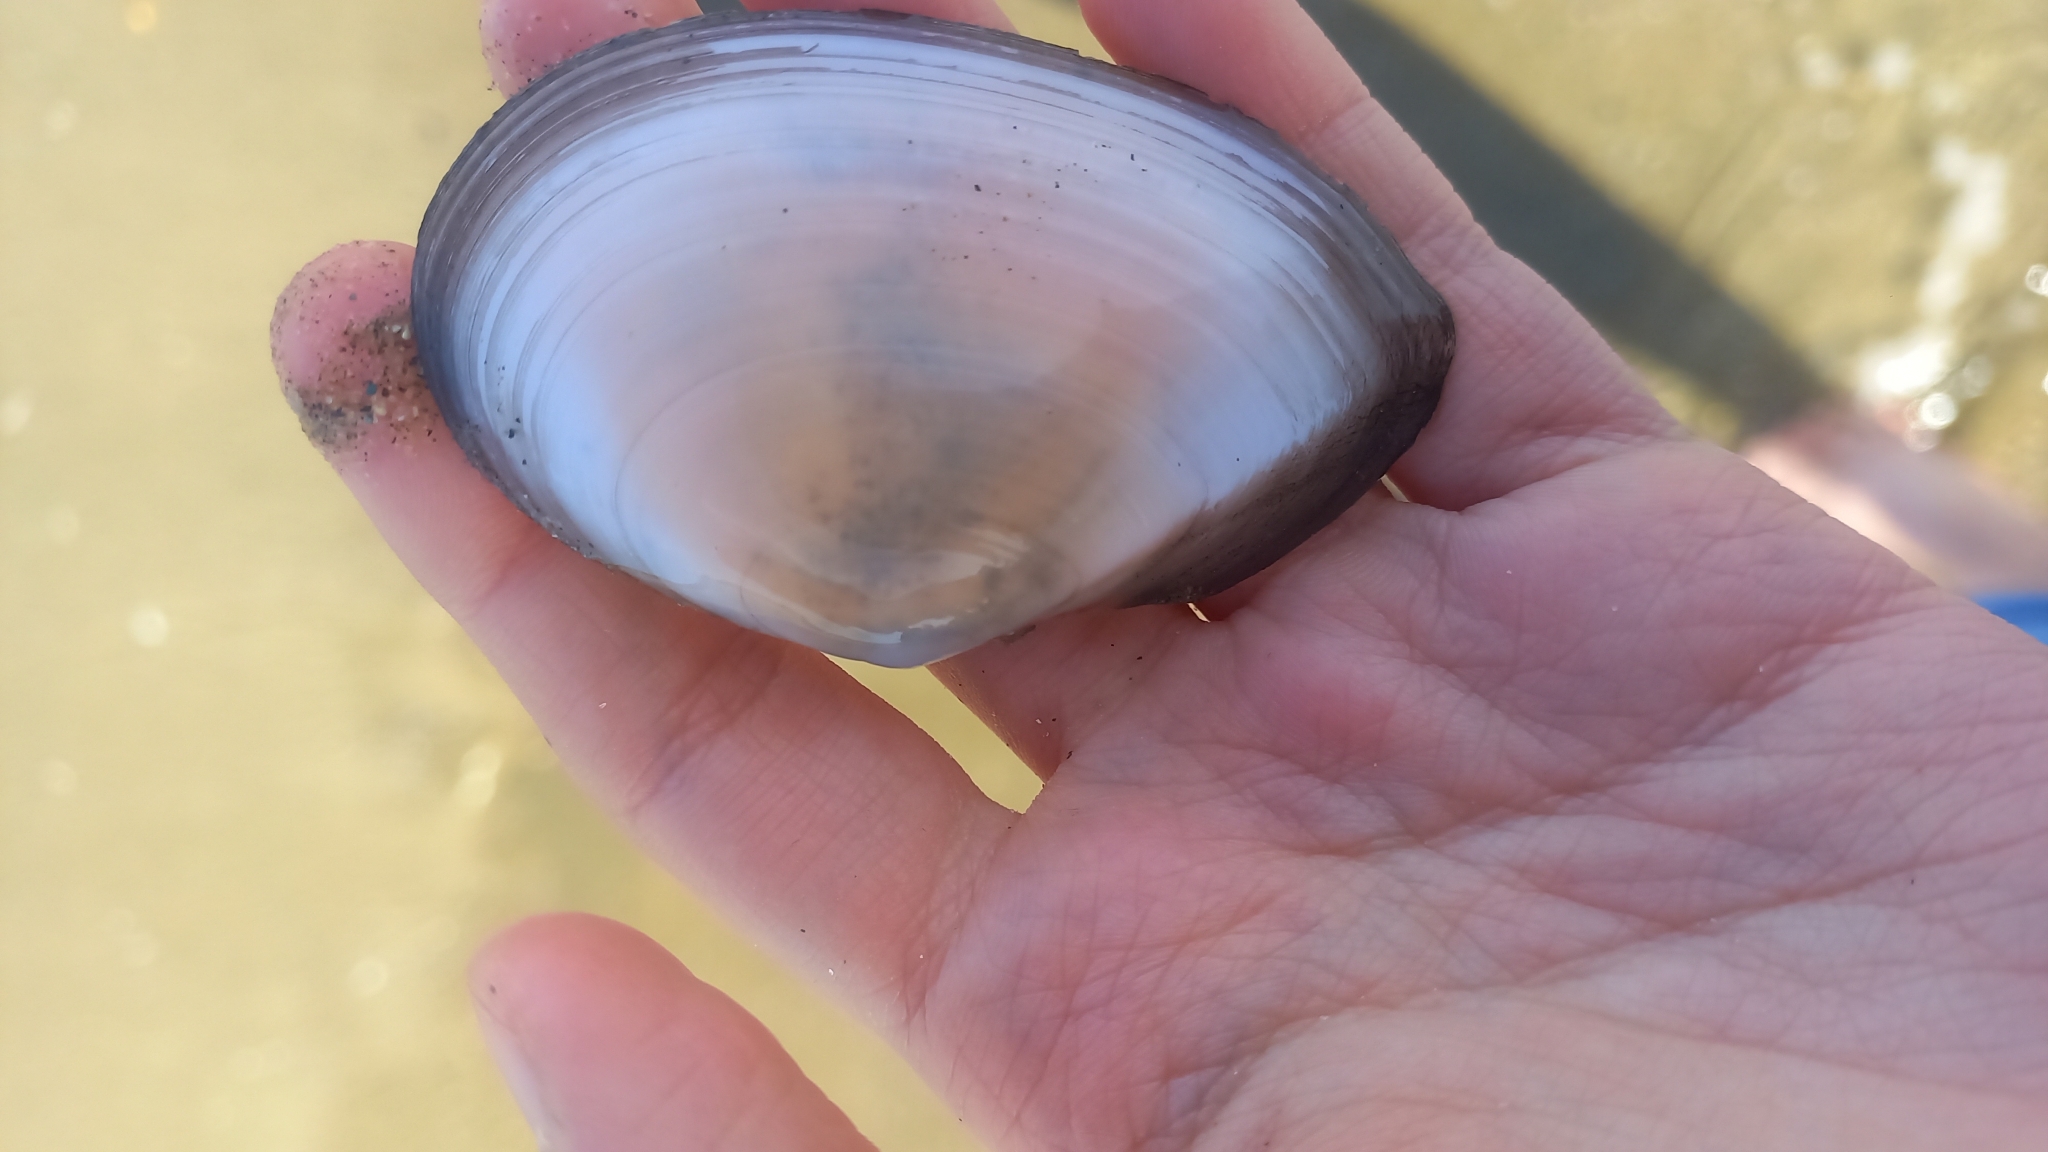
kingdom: Animalia
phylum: Mollusca
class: Bivalvia
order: Cardiida
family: Tellinidae
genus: Peronaea
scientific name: Peronaea planata
